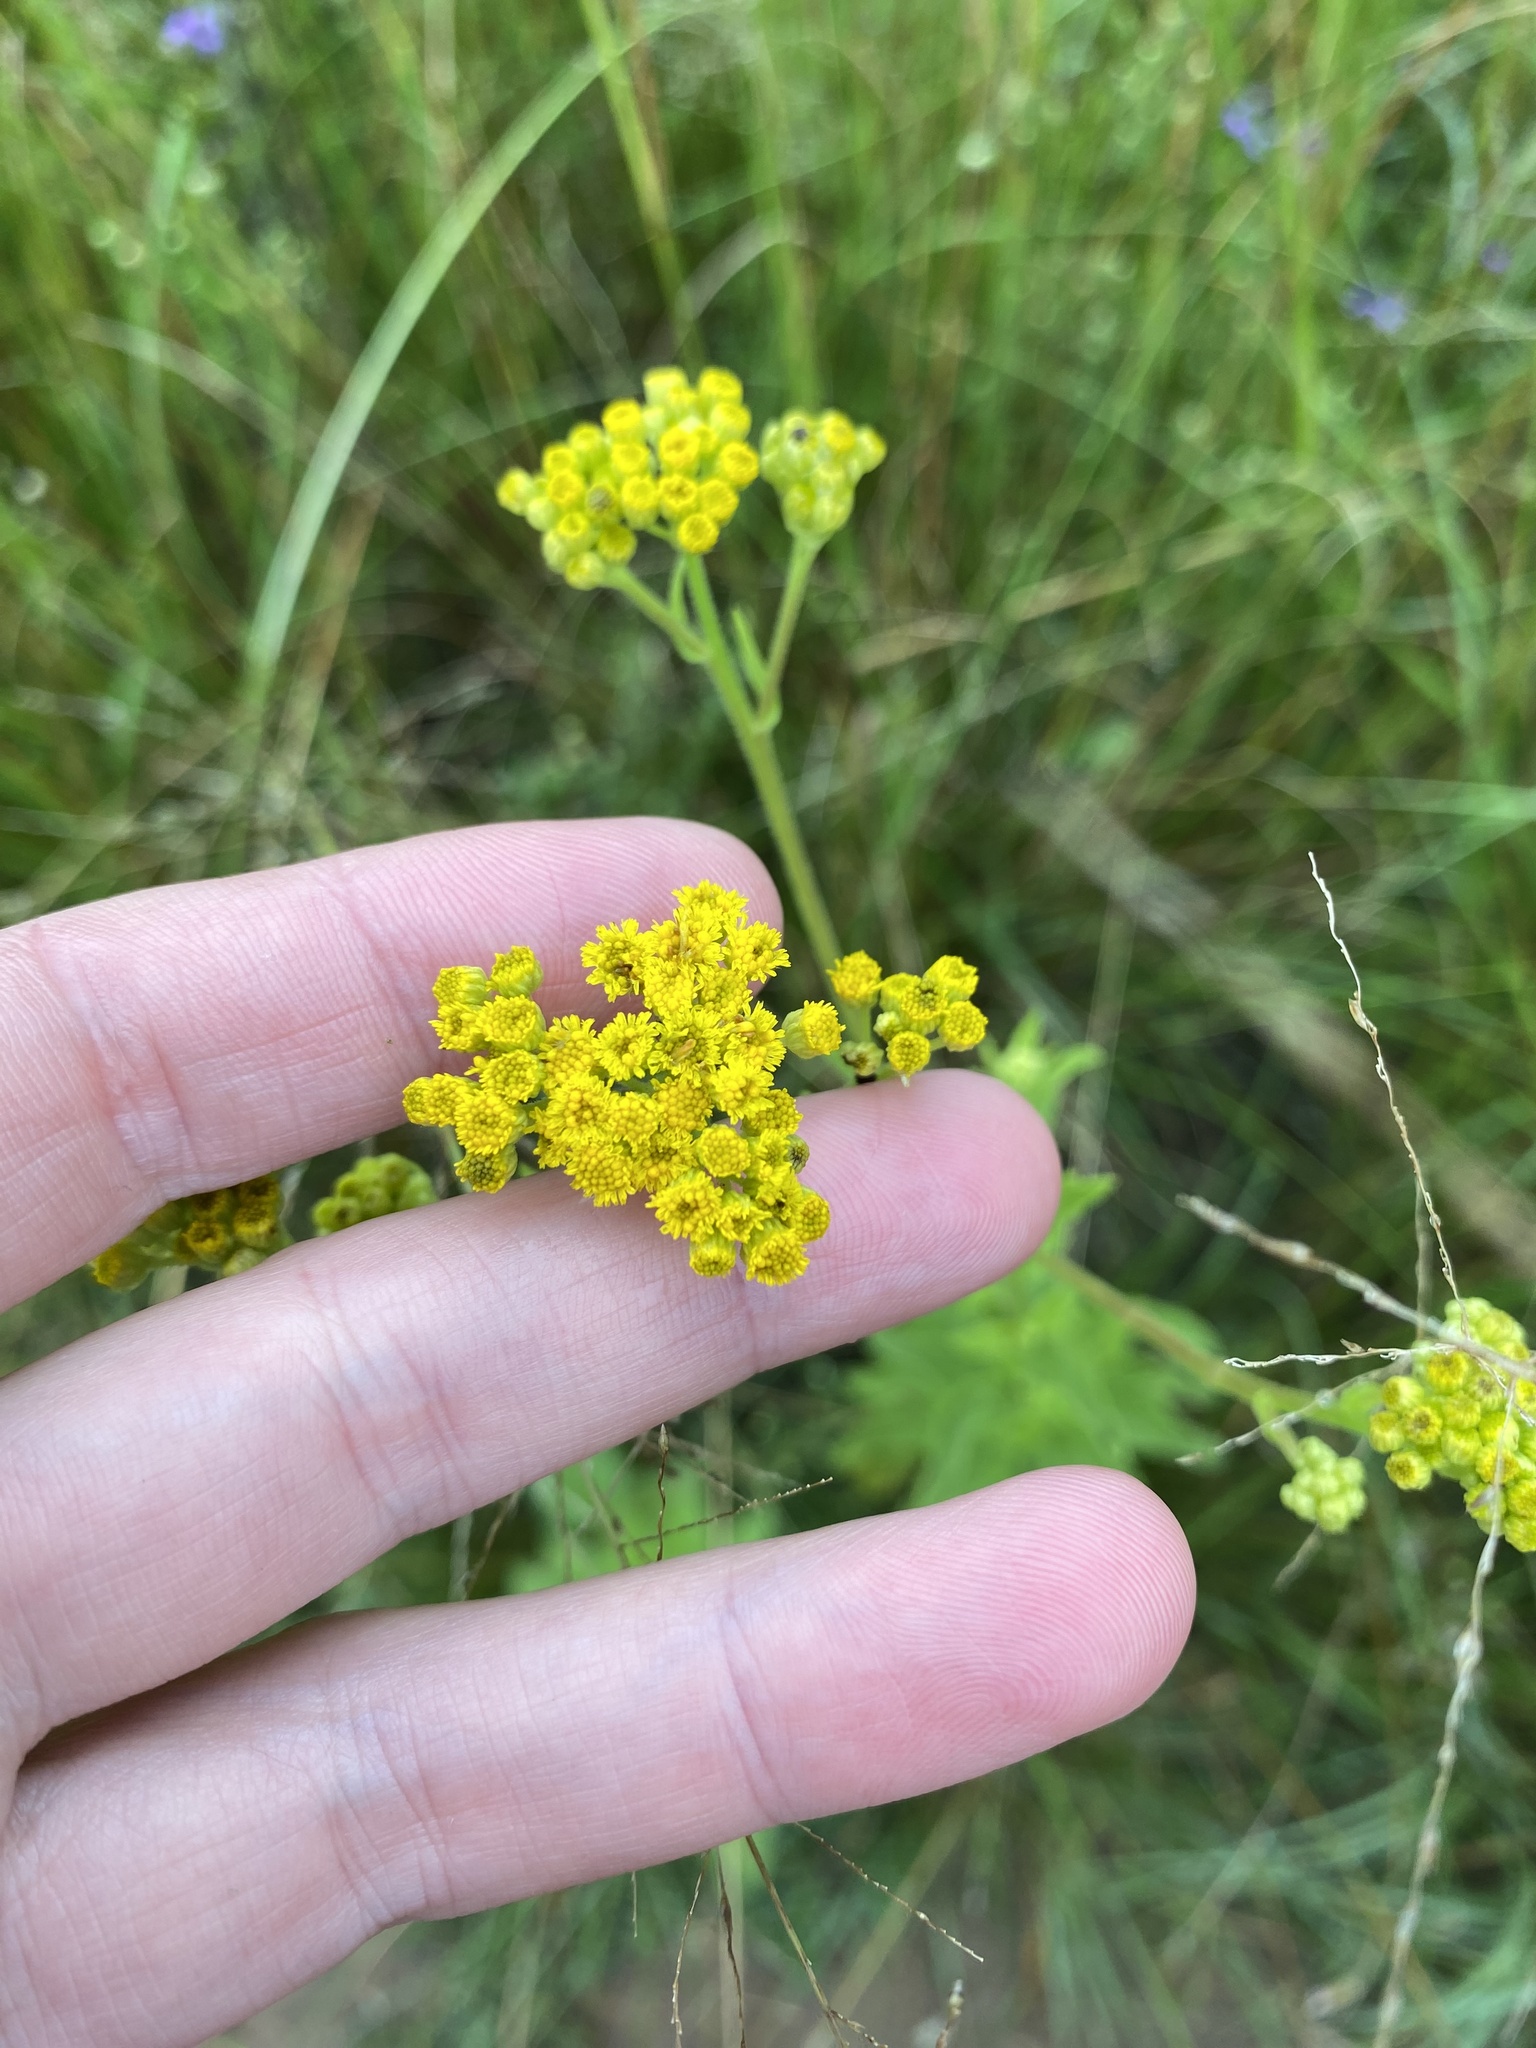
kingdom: Plantae
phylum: Tracheophyta
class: Magnoliopsida
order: Asterales
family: Asteraceae
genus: Nidorella
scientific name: Nidorella auriculata
